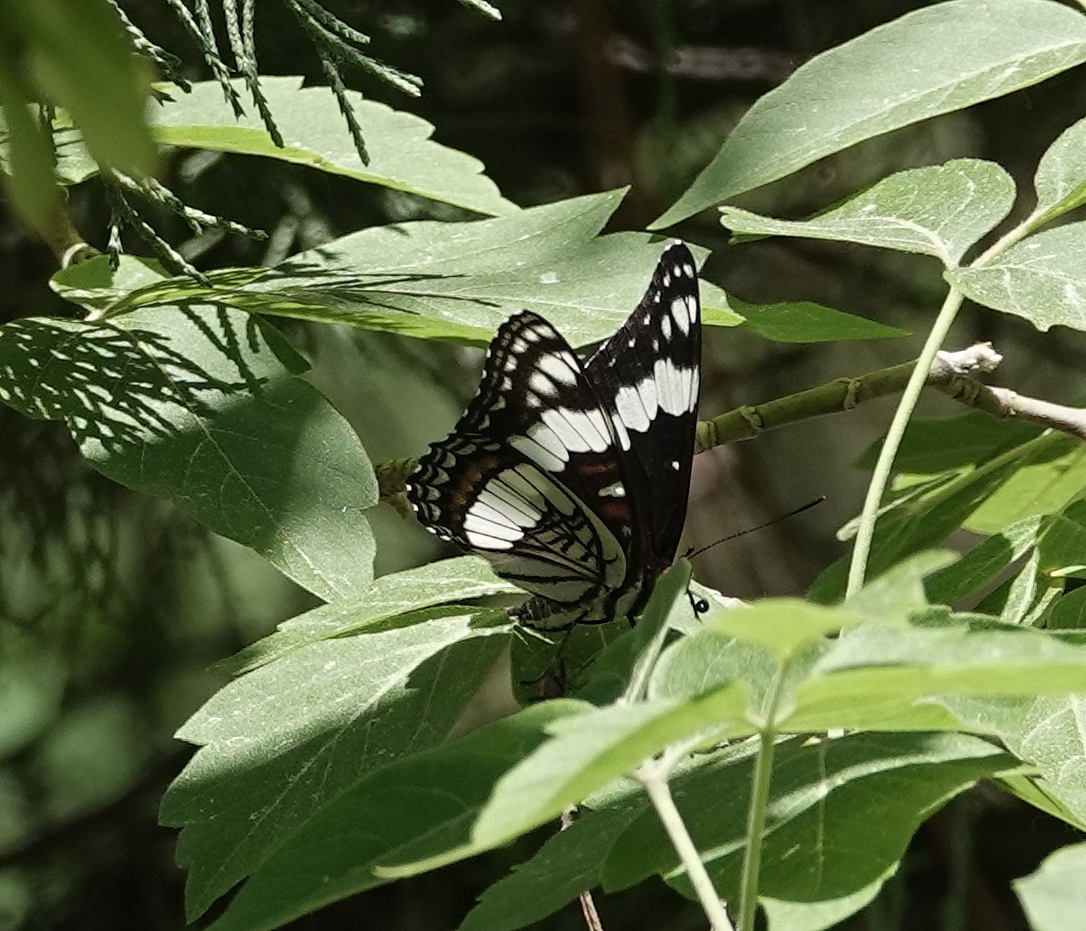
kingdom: Animalia
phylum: Arthropoda
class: Insecta
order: Lepidoptera
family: Nymphalidae
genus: Limenitis
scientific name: Limenitis weidemeyerii
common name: Weidemeyer's admiral
